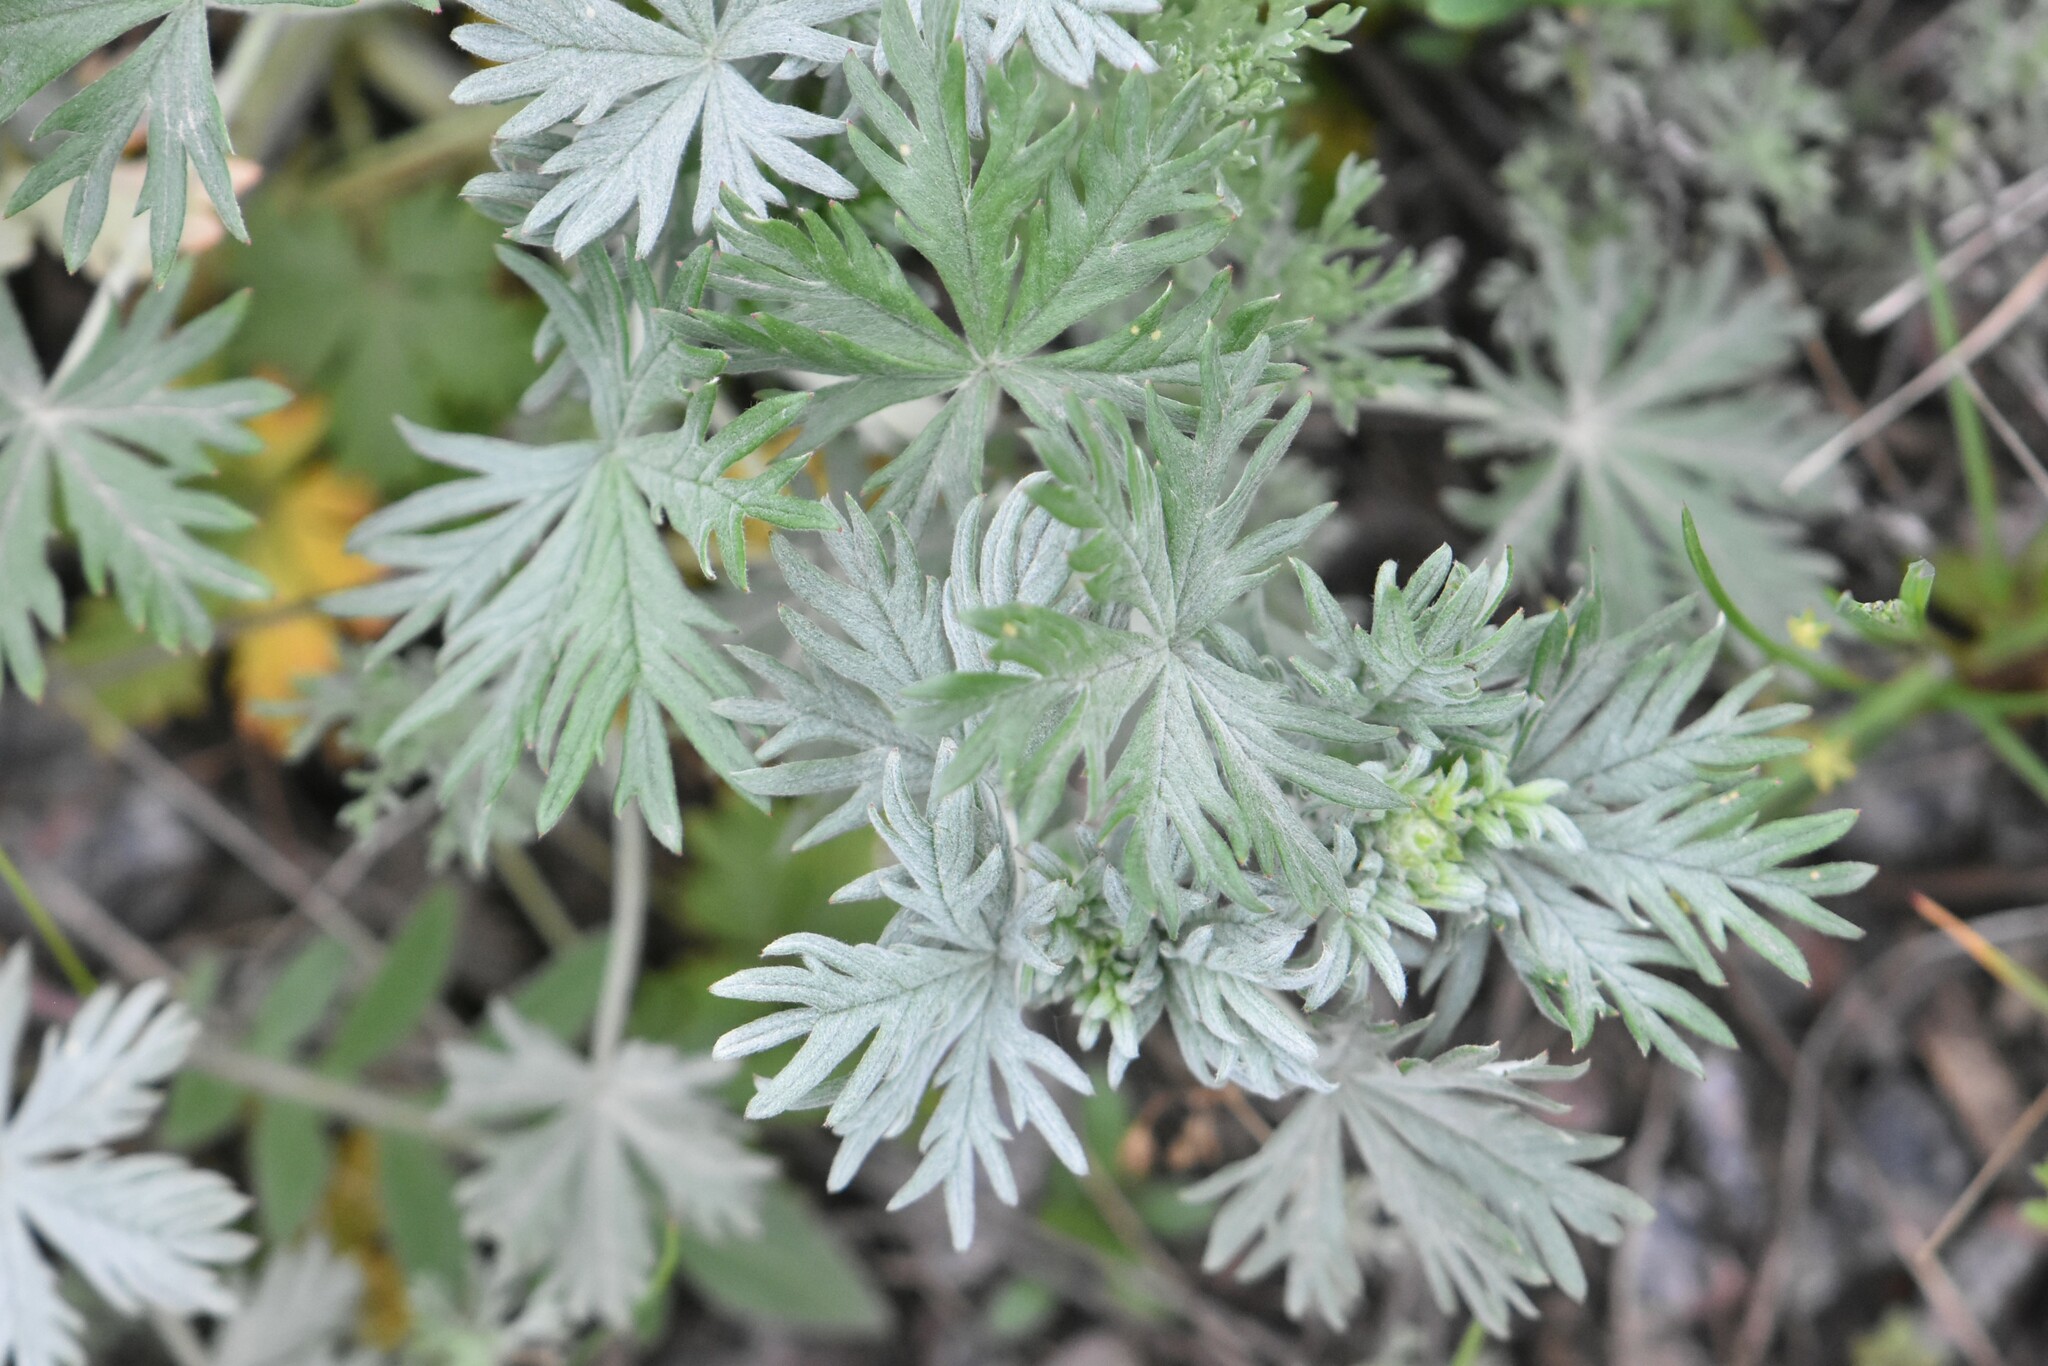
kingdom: Plantae
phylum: Tracheophyta
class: Magnoliopsida
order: Rosales
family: Rosaceae
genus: Potentilla
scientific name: Potentilla argentea
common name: Hoary cinquefoil
